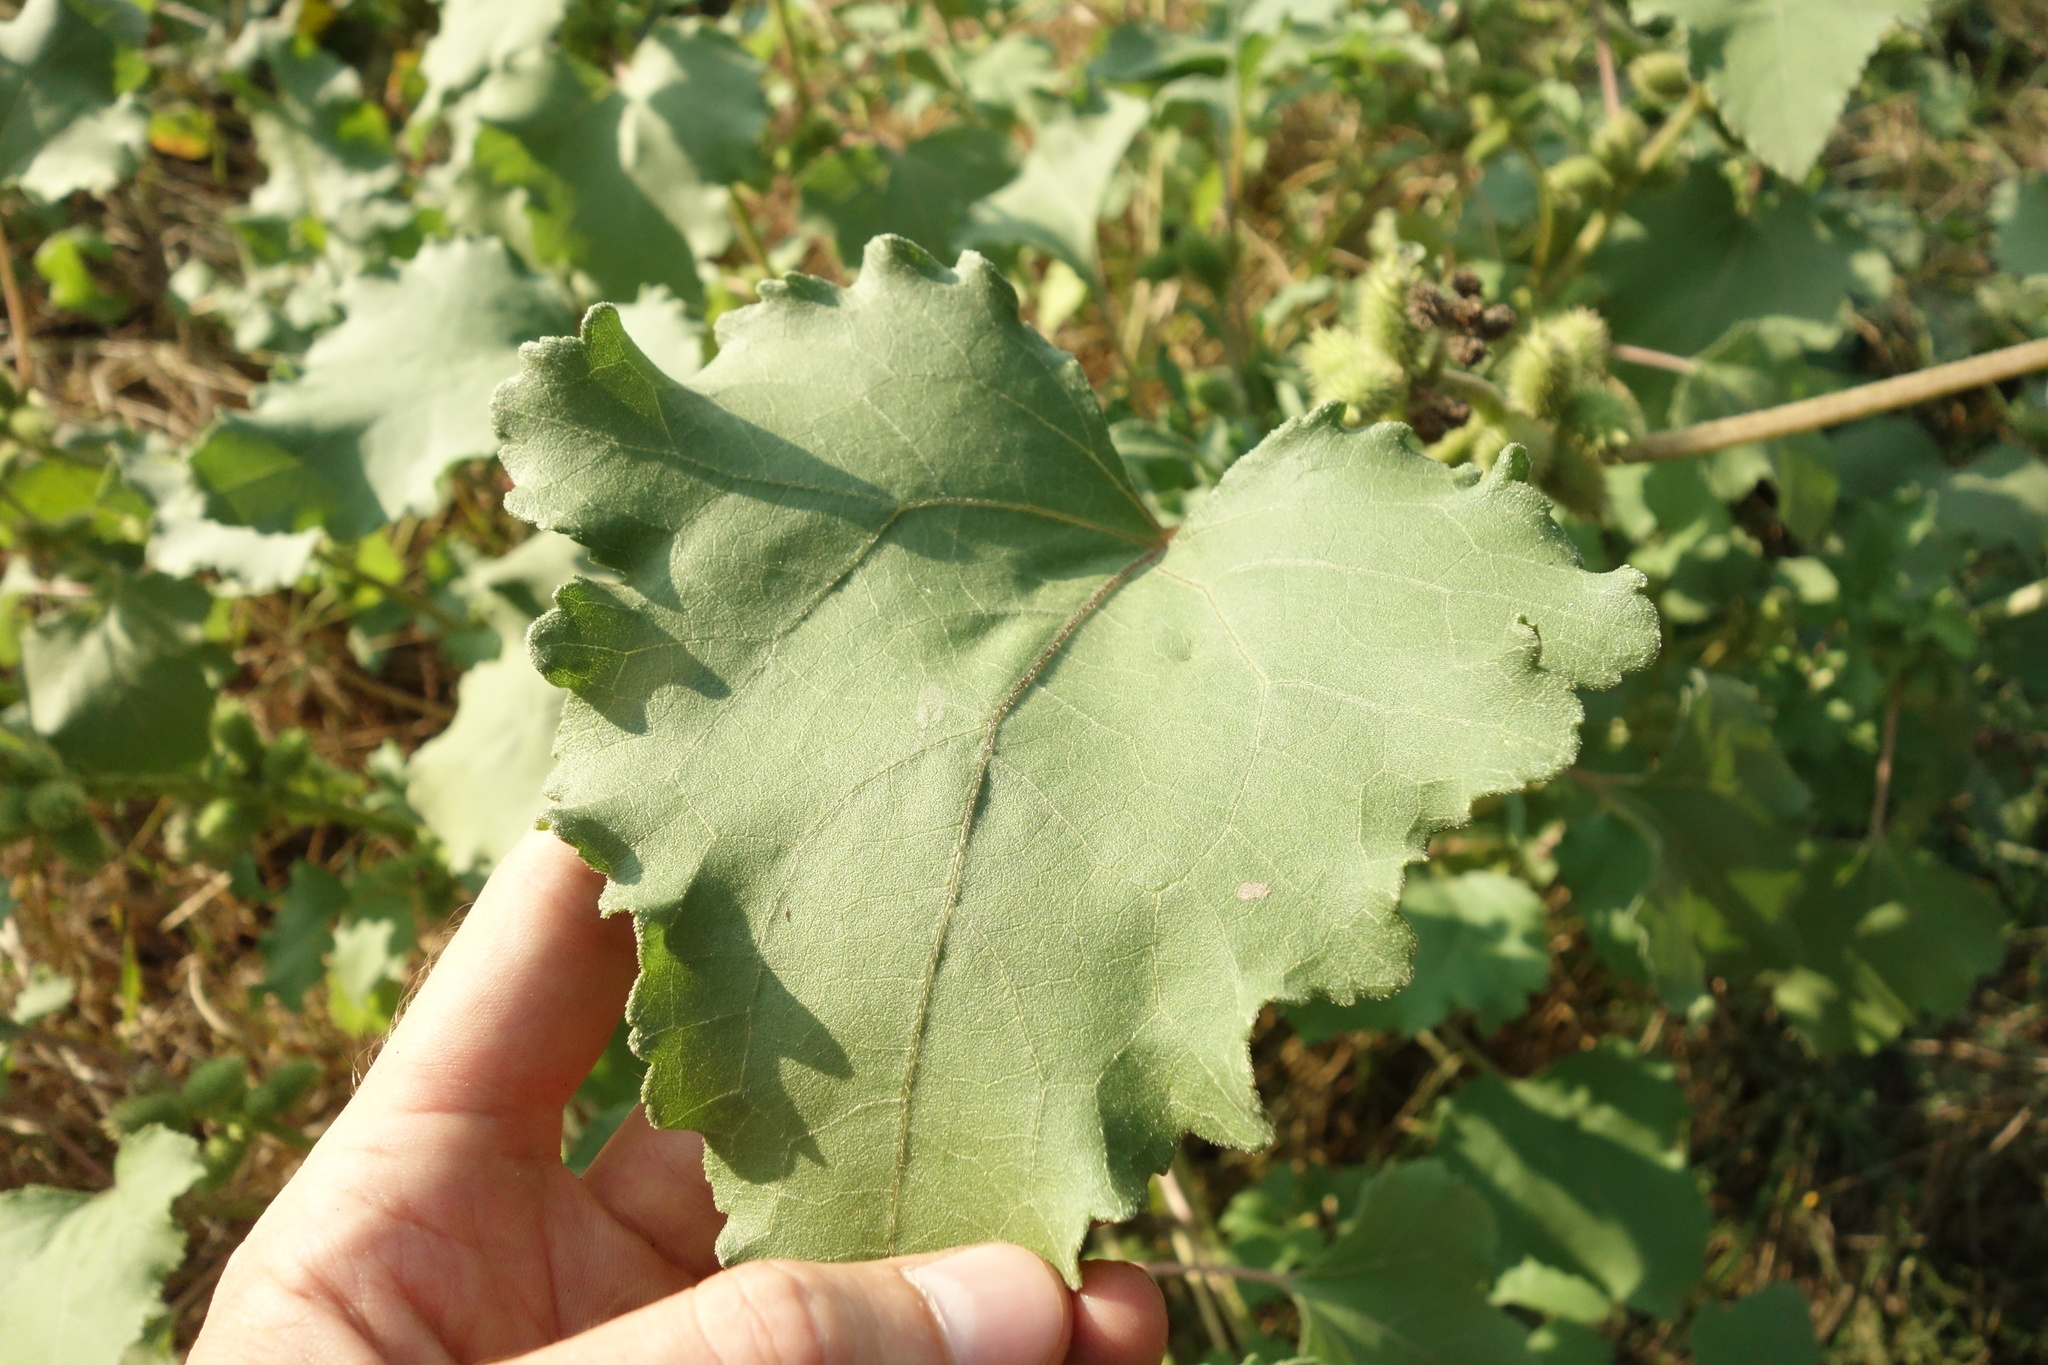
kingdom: Plantae
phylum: Tracheophyta
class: Magnoliopsida
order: Asterales
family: Asteraceae
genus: Xanthium
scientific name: Xanthium orientale
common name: Californian burr
